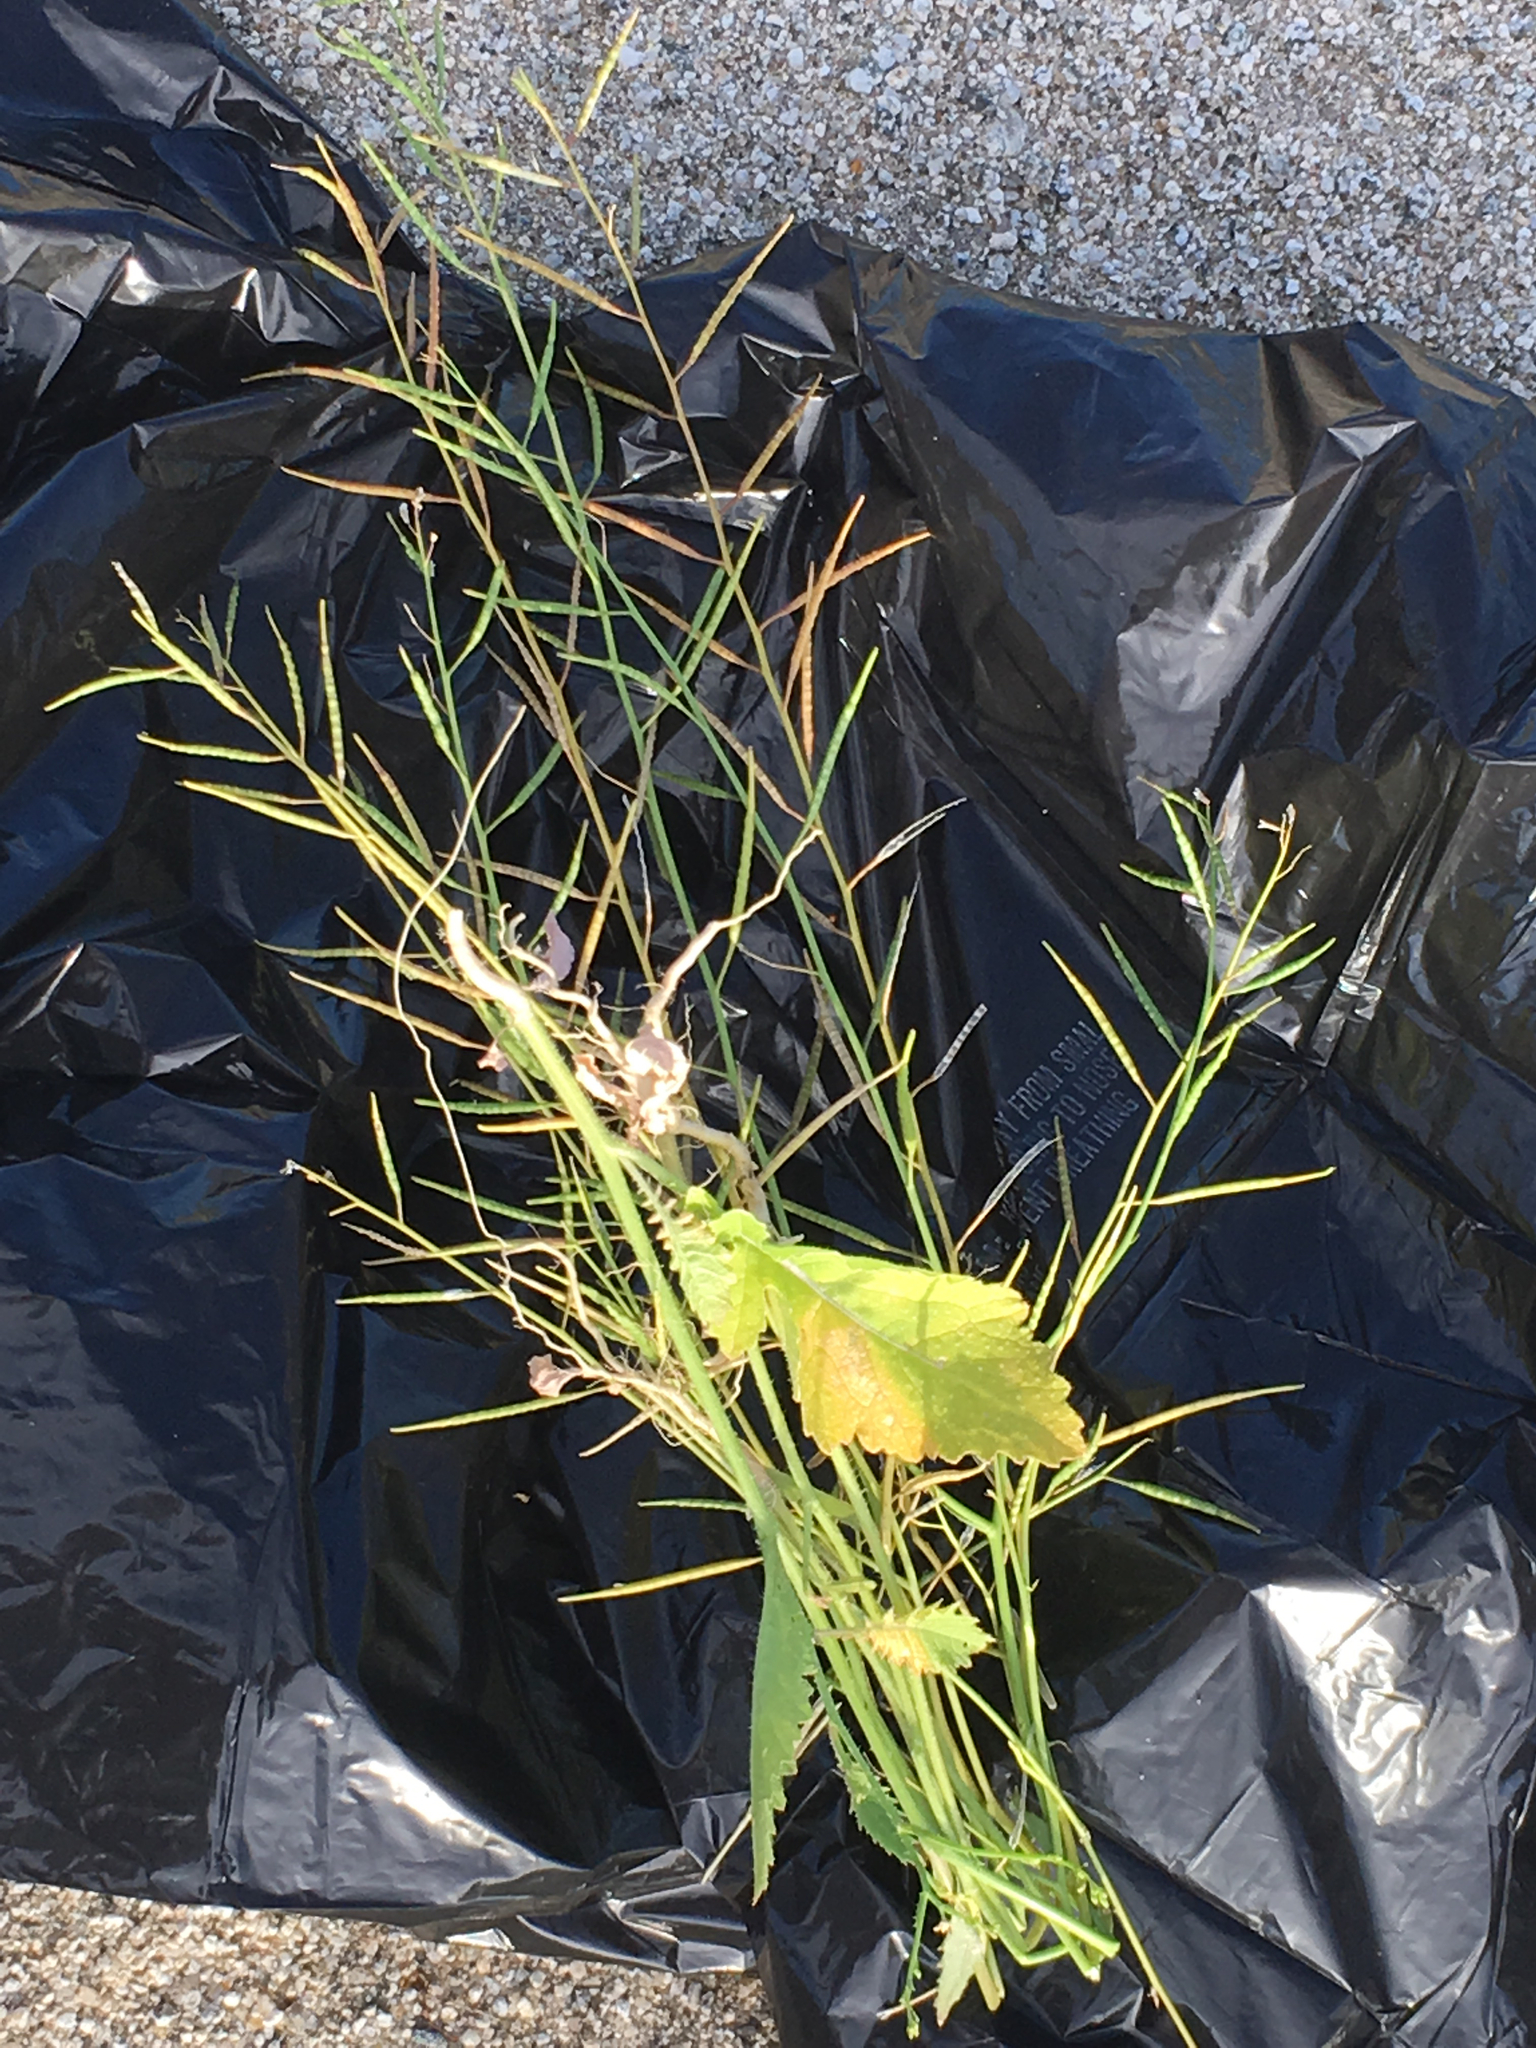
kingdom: Plantae
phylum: Tracheophyta
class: Magnoliopsida
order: Brassicales
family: Brassicaceae
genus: Brassica
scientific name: Brassica tournefortii
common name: Pale cabbage
